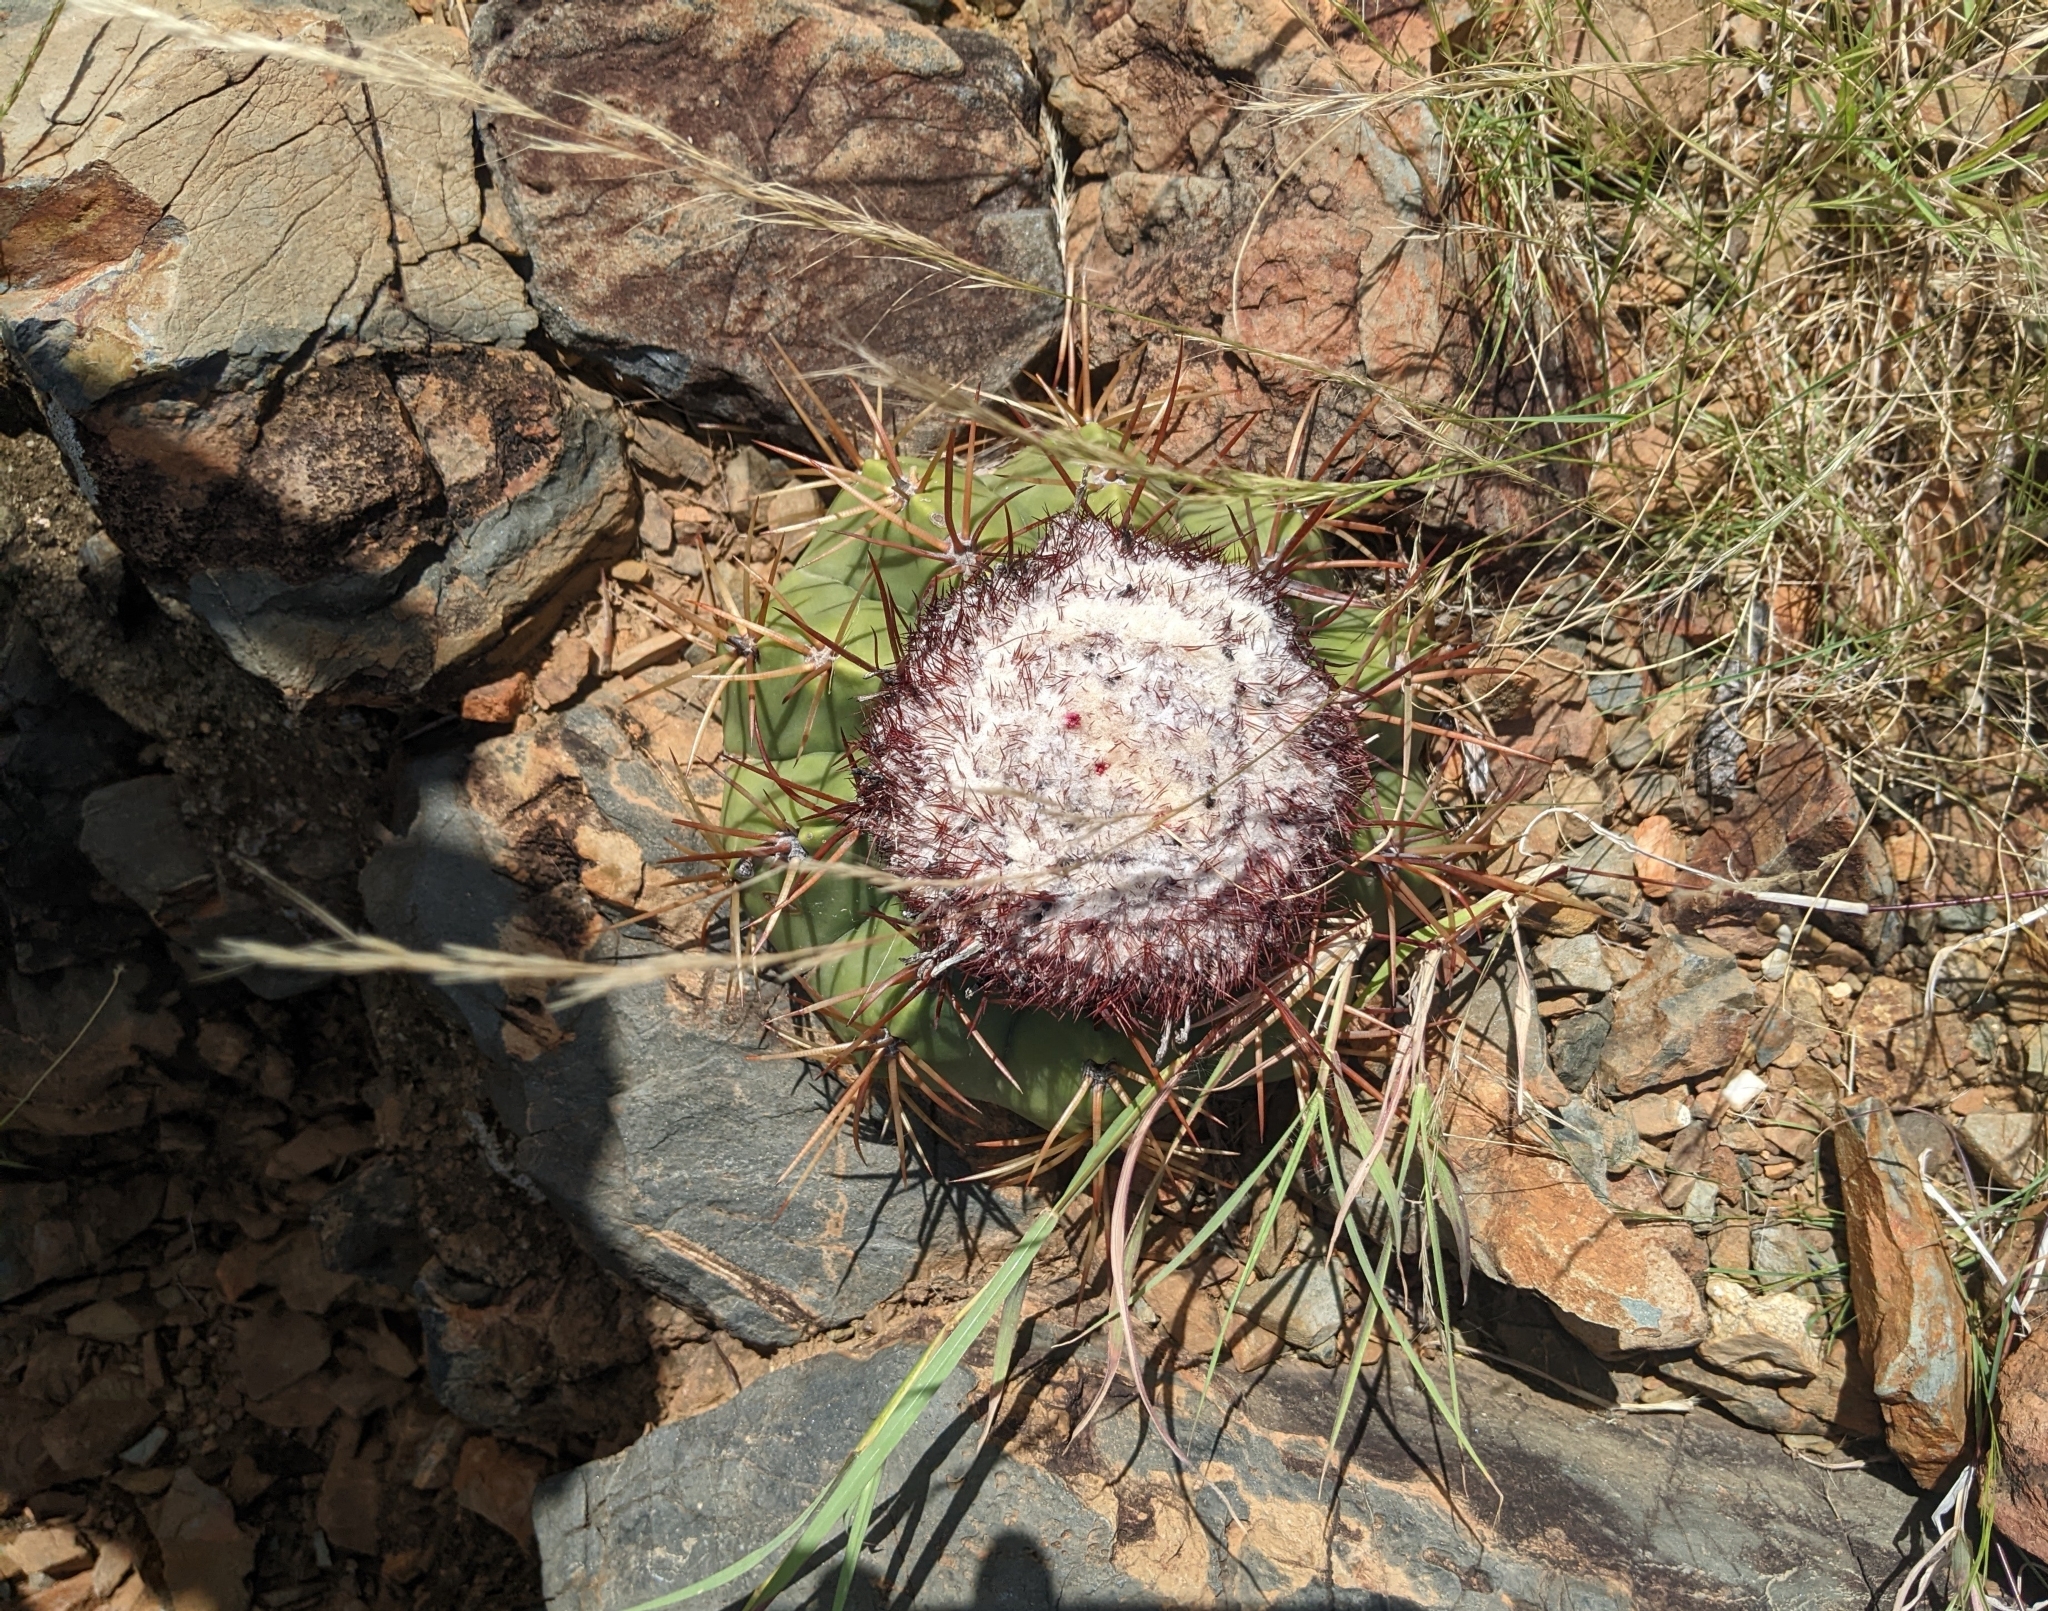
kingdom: Plantae
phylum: Tracheophyta
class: Magnoliopsida
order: Caryophyllales
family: Cactaceae
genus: Melocactus
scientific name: Melocactus macracanthos
